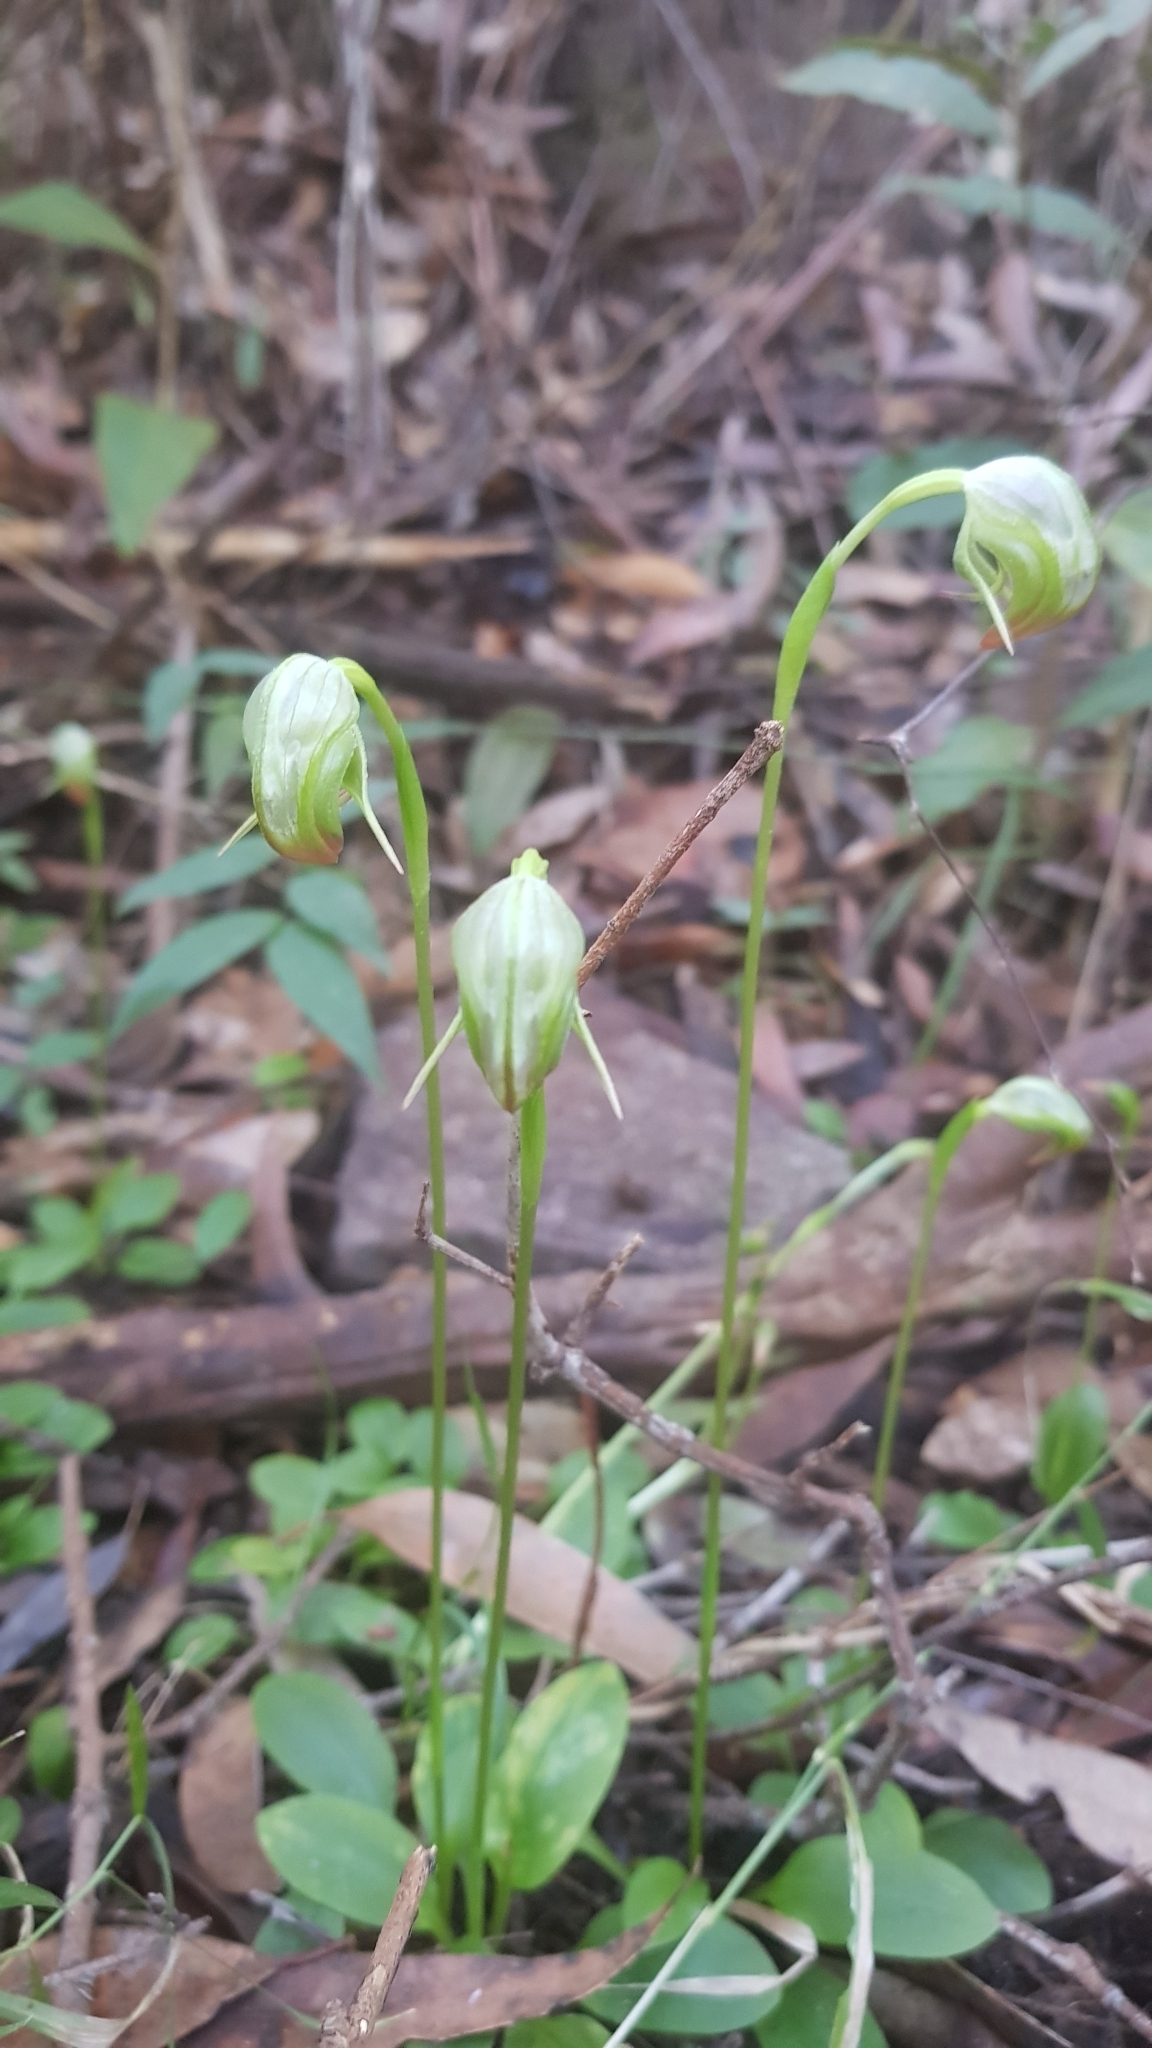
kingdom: Plantae
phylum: Tracheophyta
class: Liliopsida
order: Asparagales
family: Orchidaceae
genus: Pterostylis
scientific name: Pterostylis nutans
